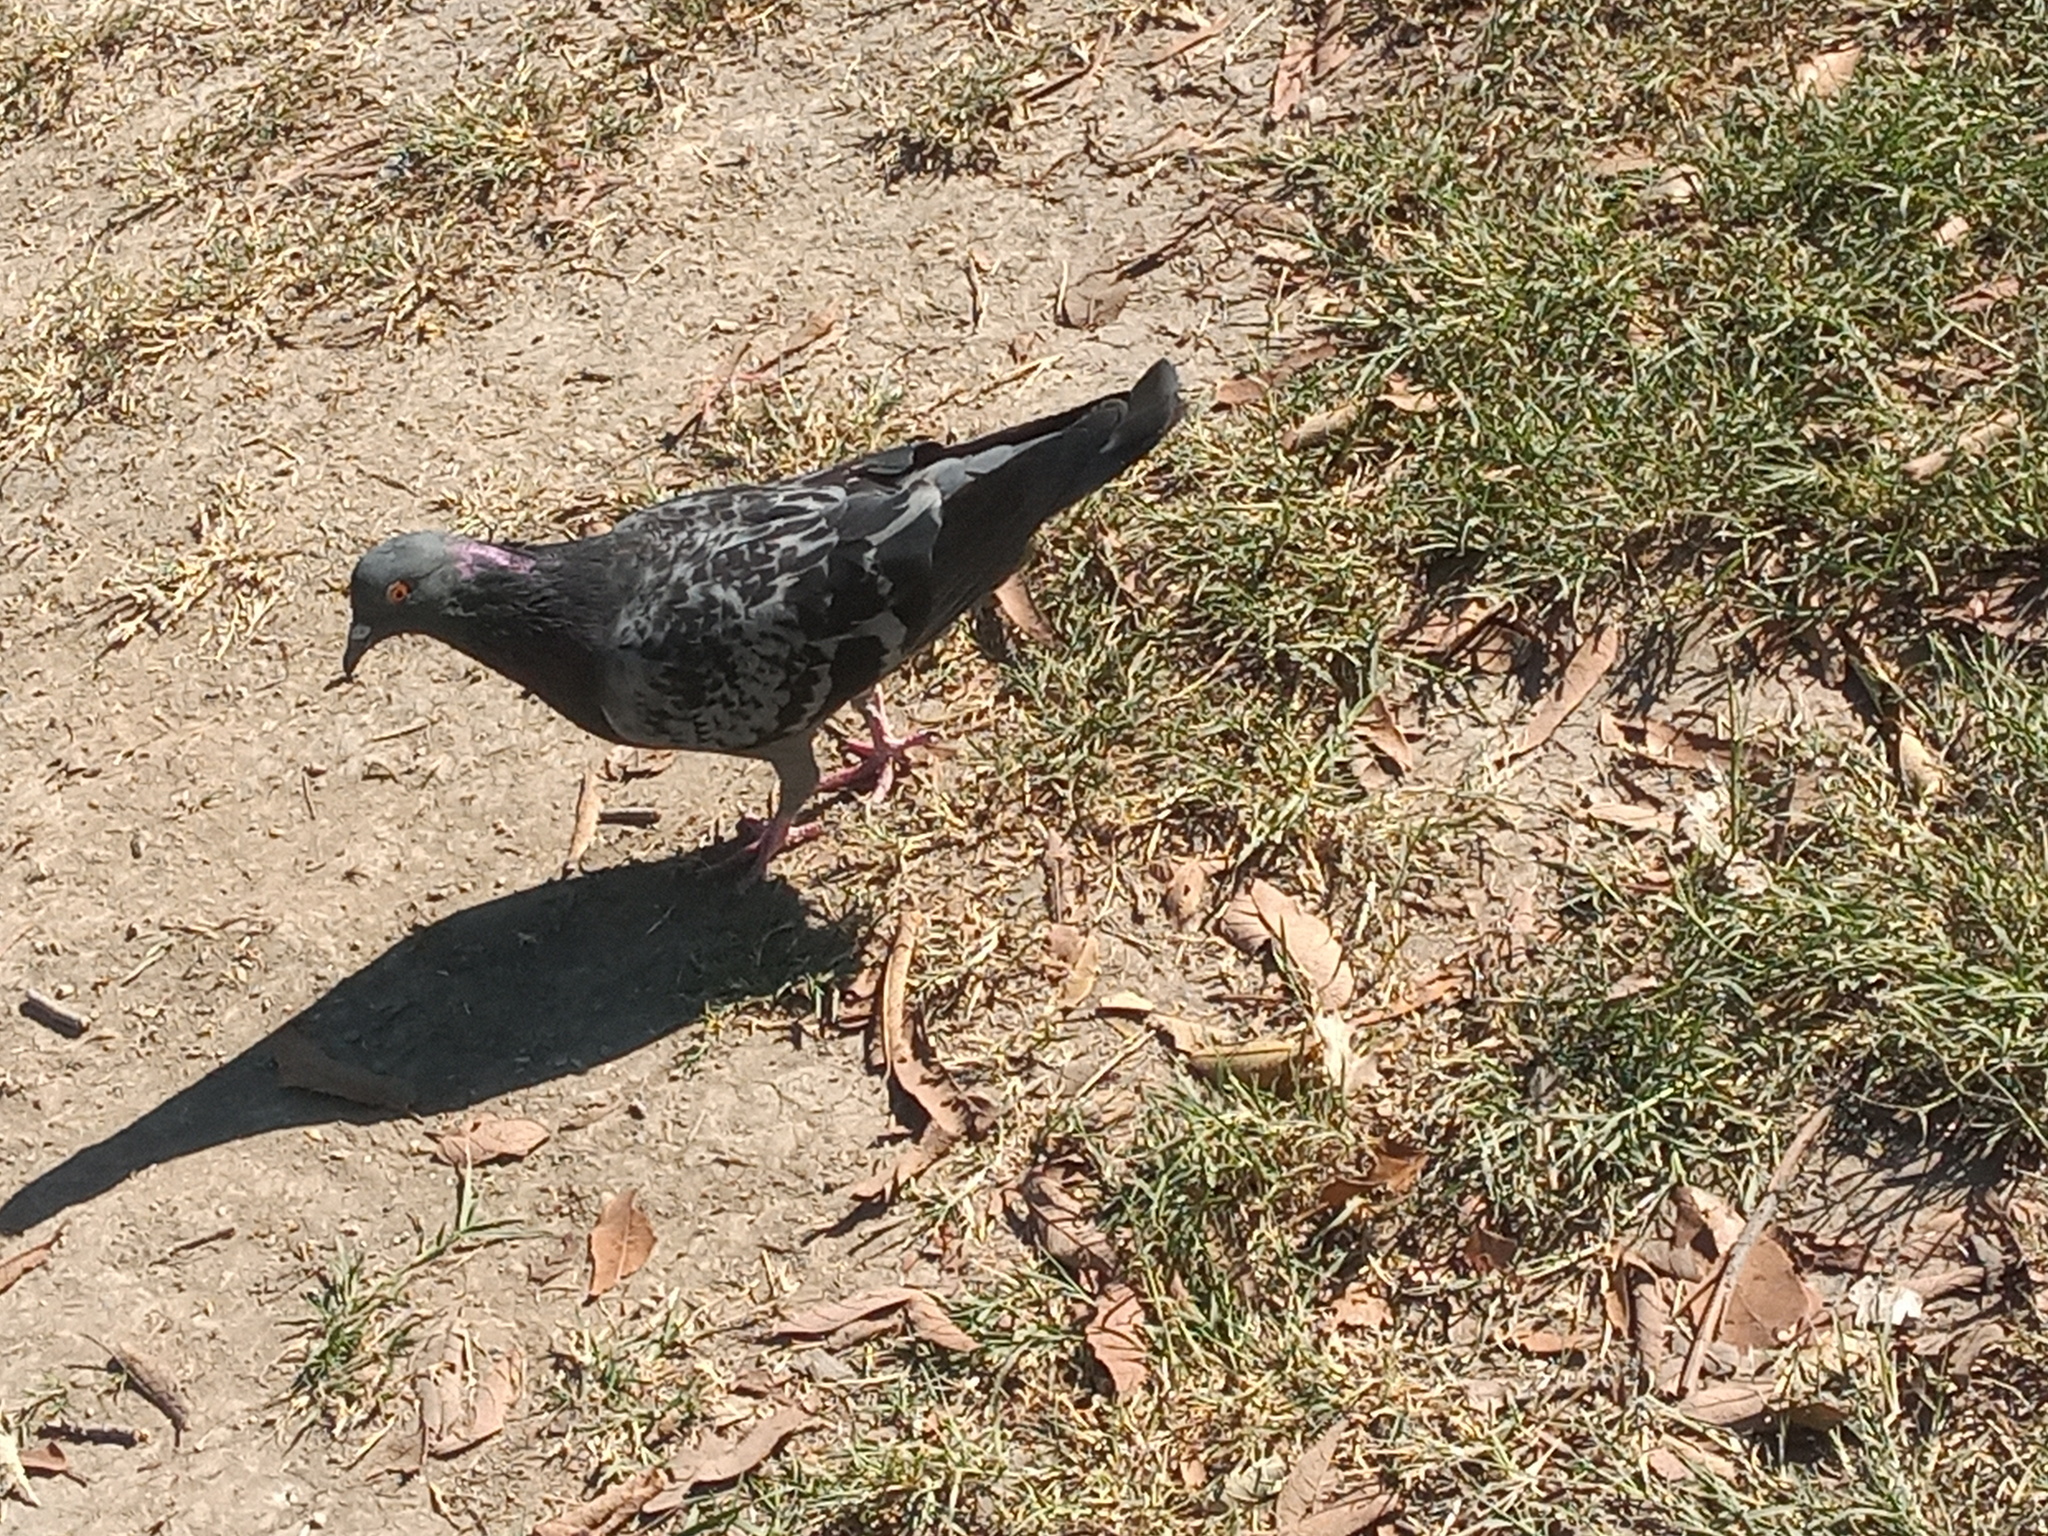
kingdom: Animalia
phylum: Chordata
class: Aves
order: Columbiformes
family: Columbidae
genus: Columba
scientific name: Columba livia
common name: Rock pigeon
